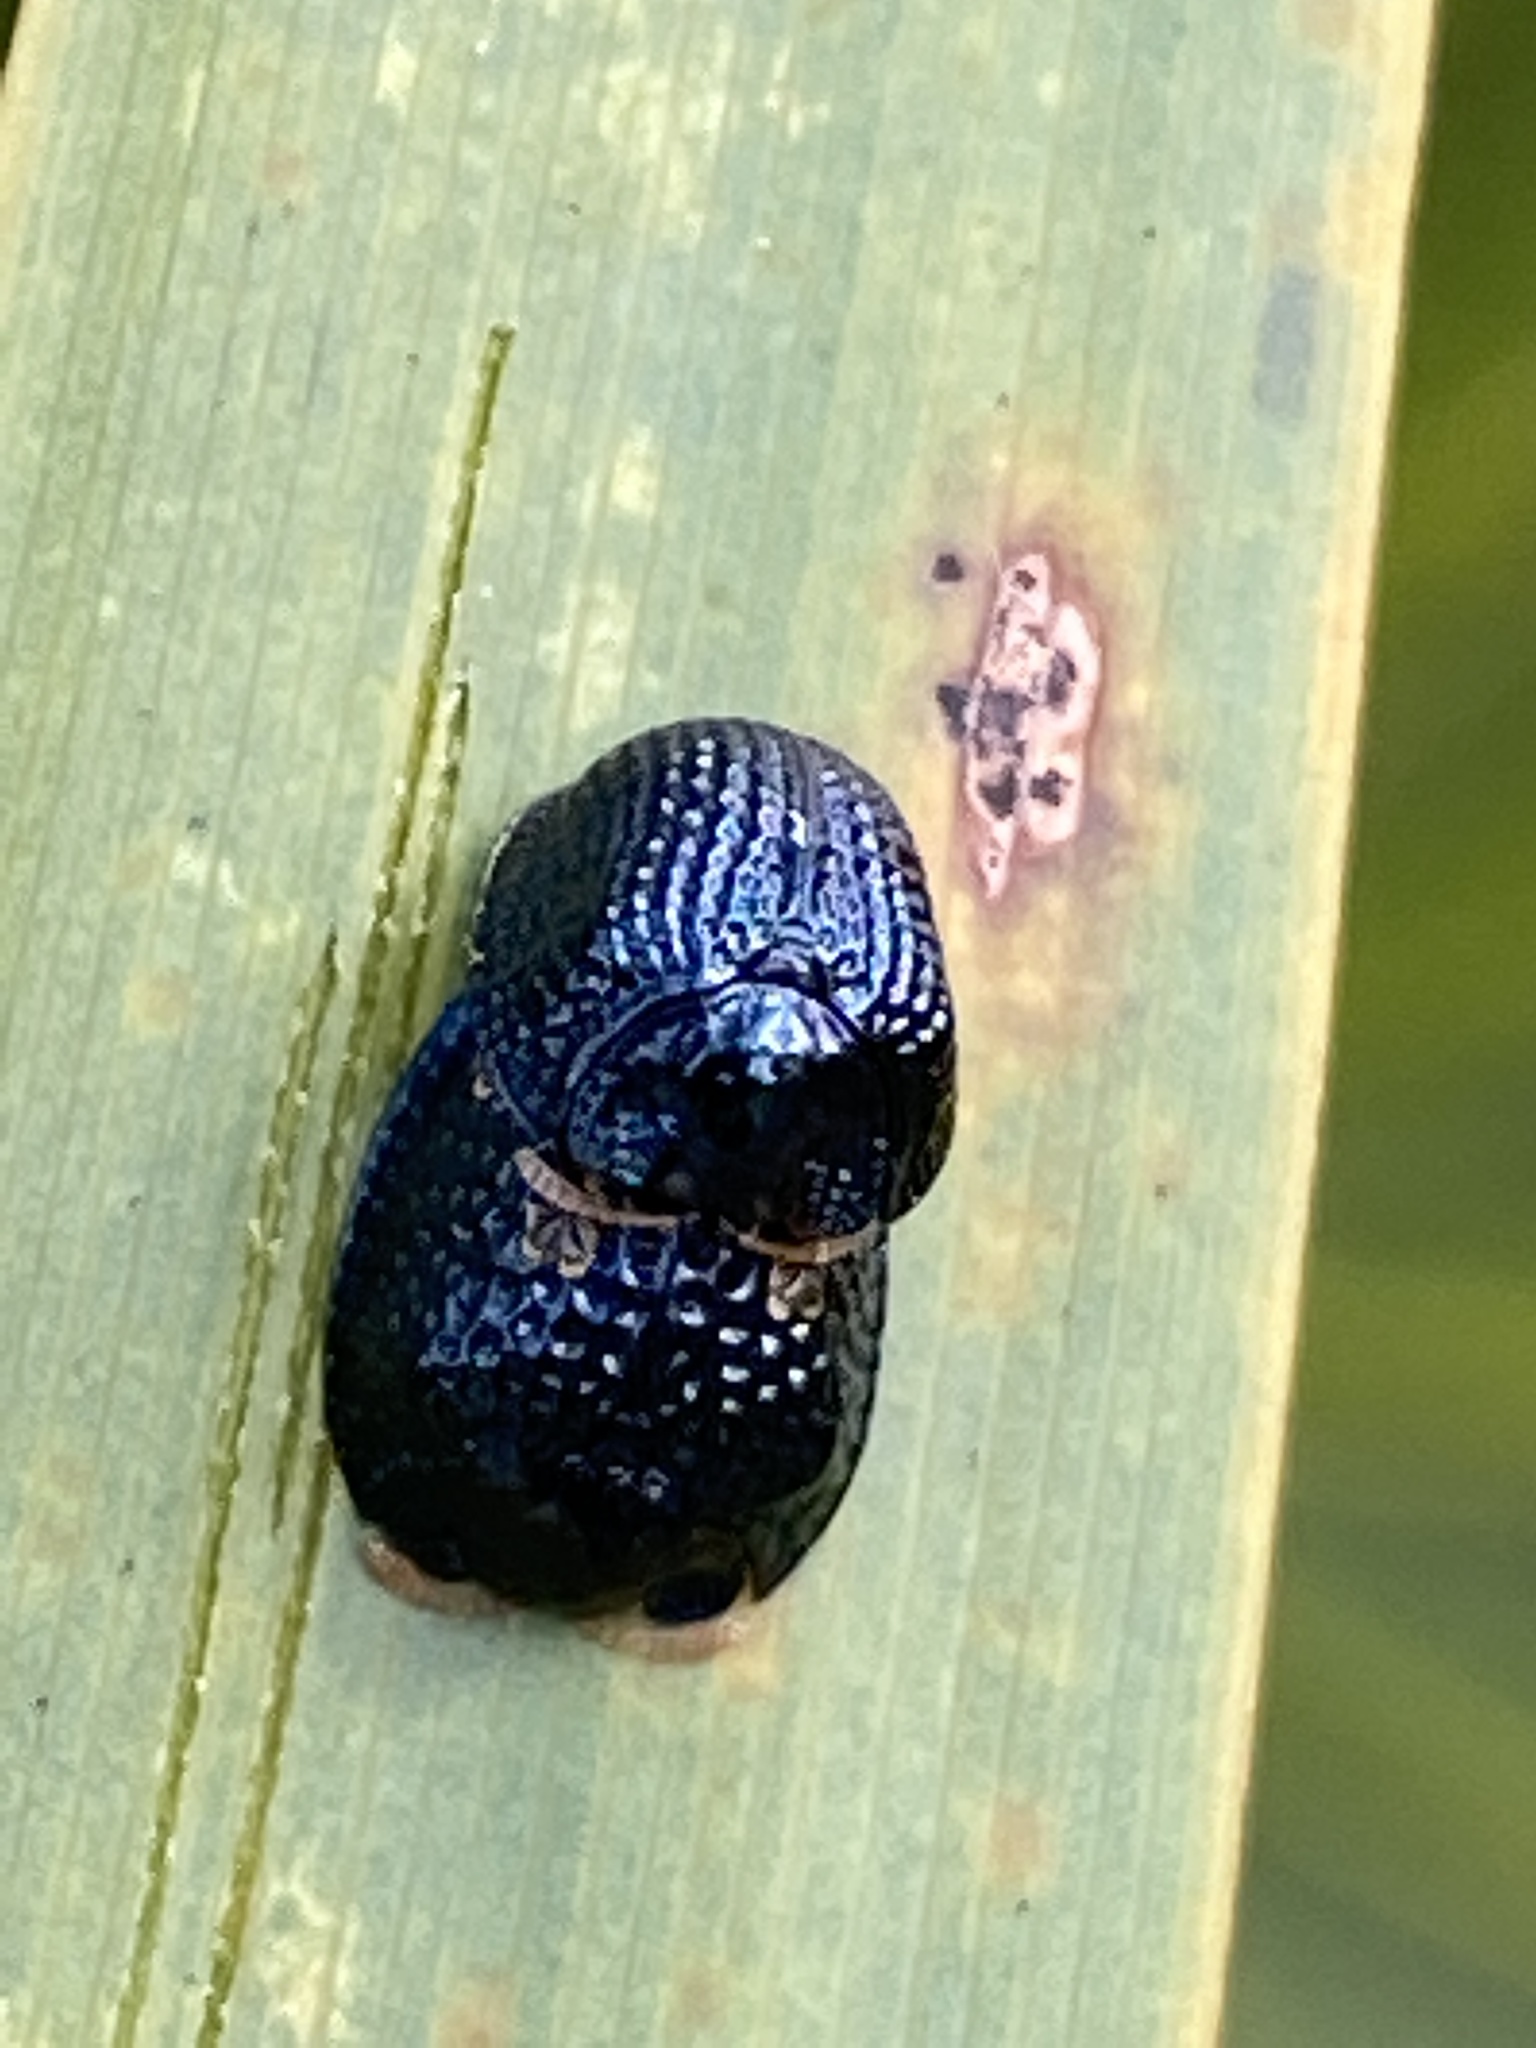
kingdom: Animalia
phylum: Arthropoda
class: Insecta
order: Coleoptera
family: Chrysomelidae
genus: Hemisphaerota
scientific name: Hemisphaerota cyanea
